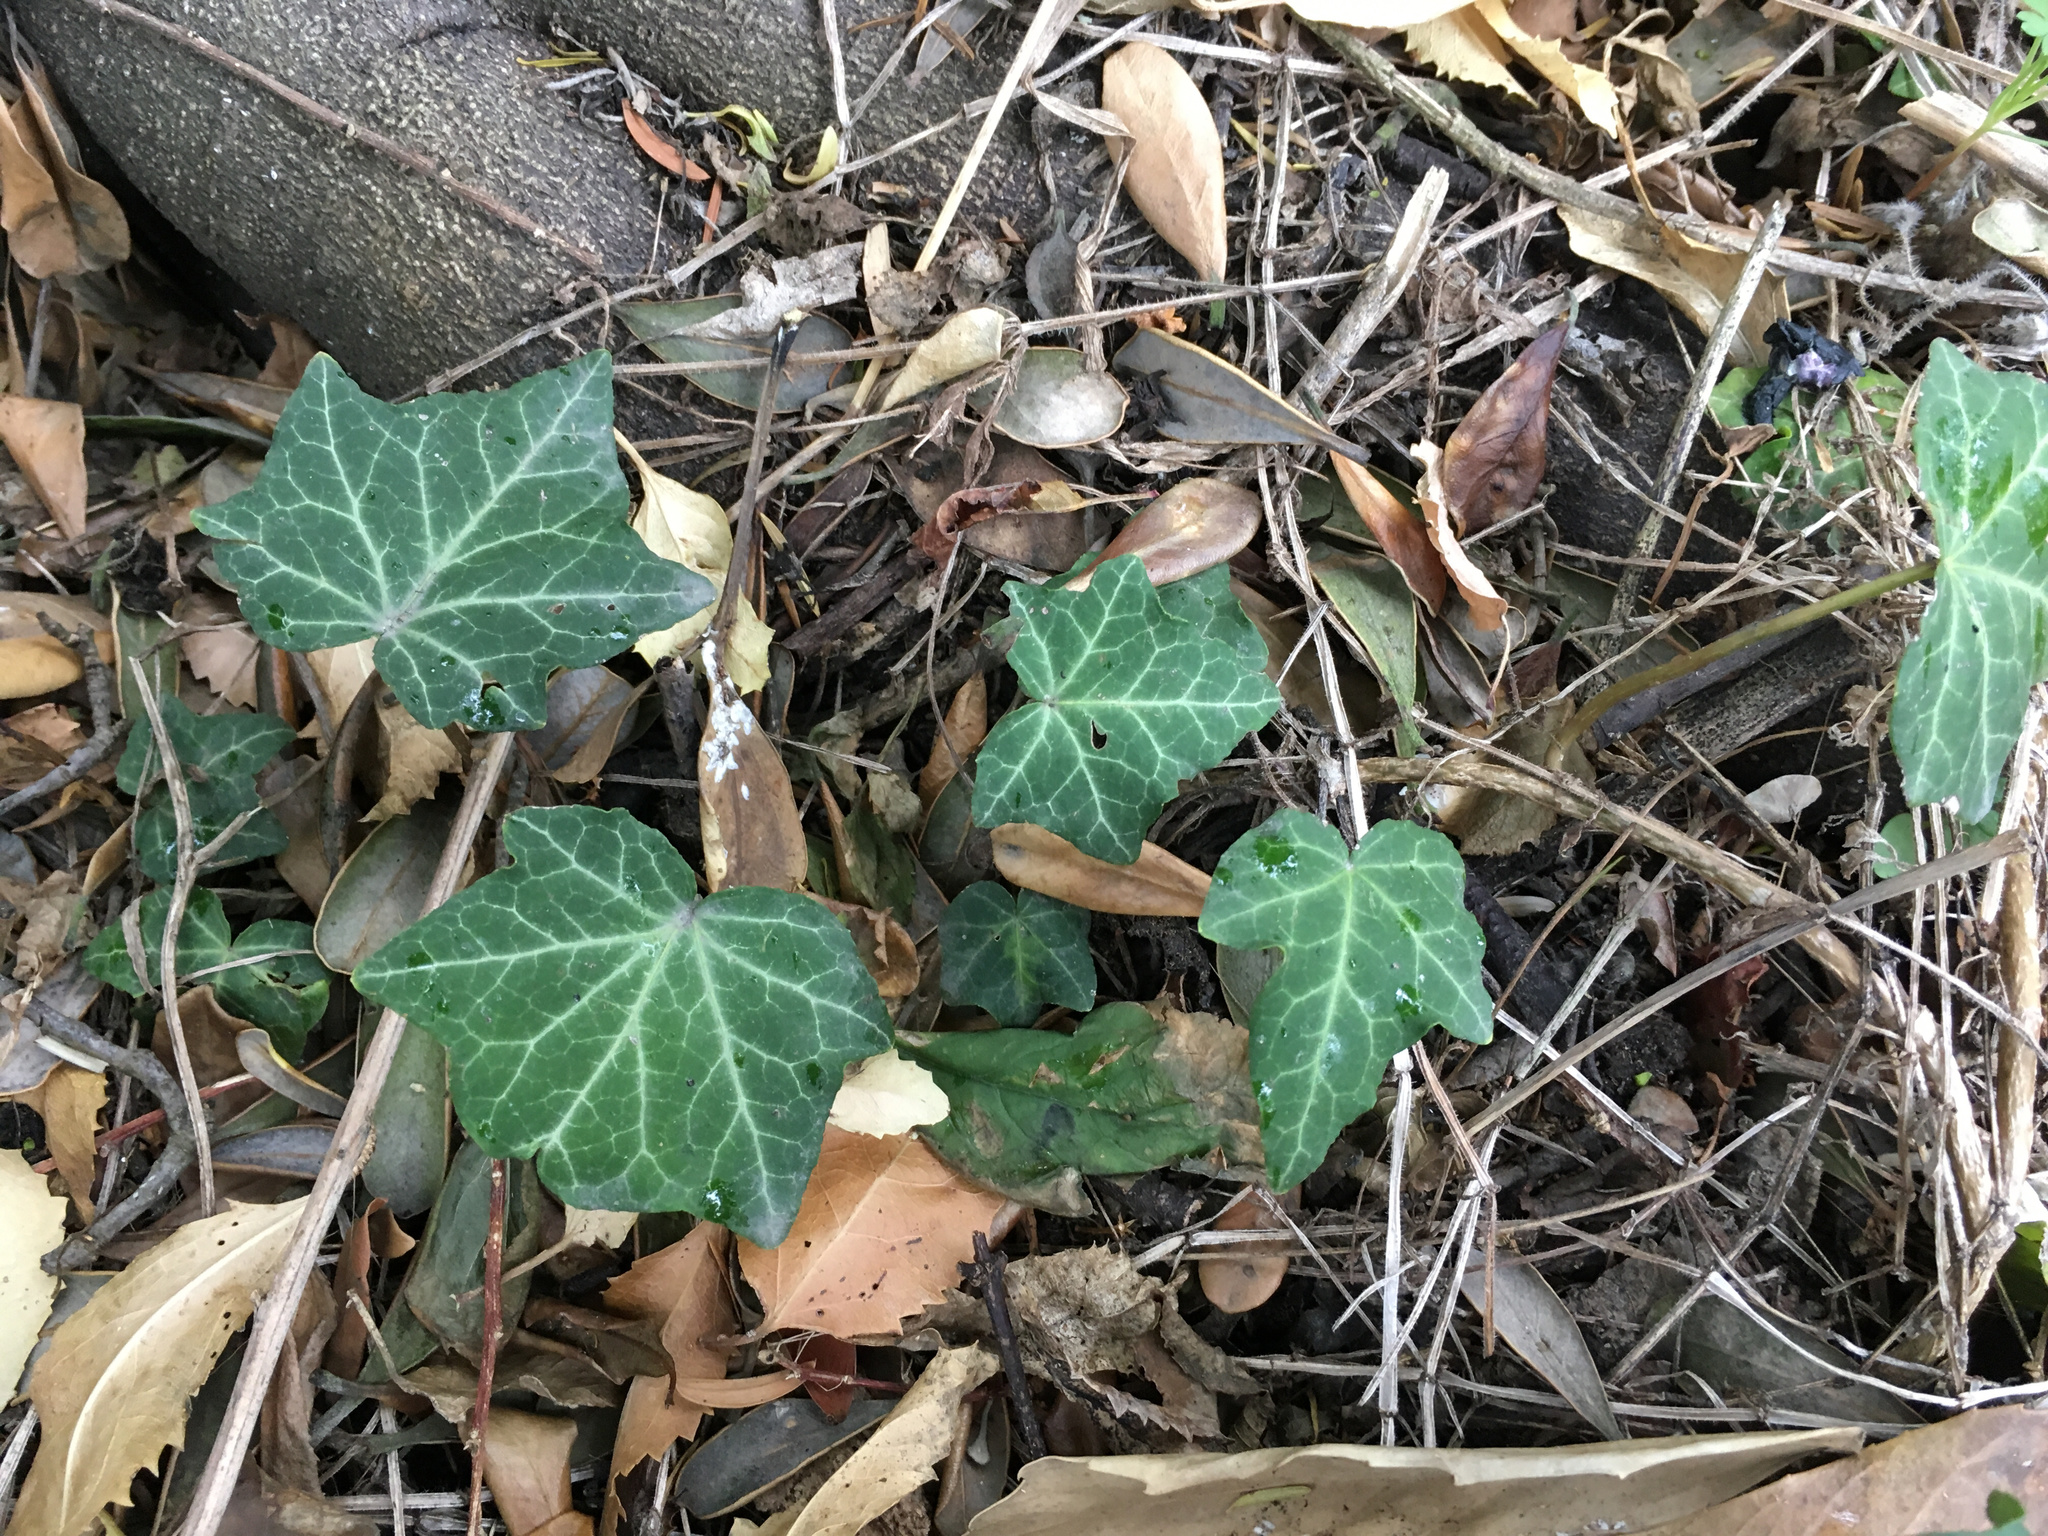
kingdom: Plantae
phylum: Tracheophyta
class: Magnoliopsida
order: Apiales
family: Araliaceae
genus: Hedera
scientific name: Hedera helix
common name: Ivy
